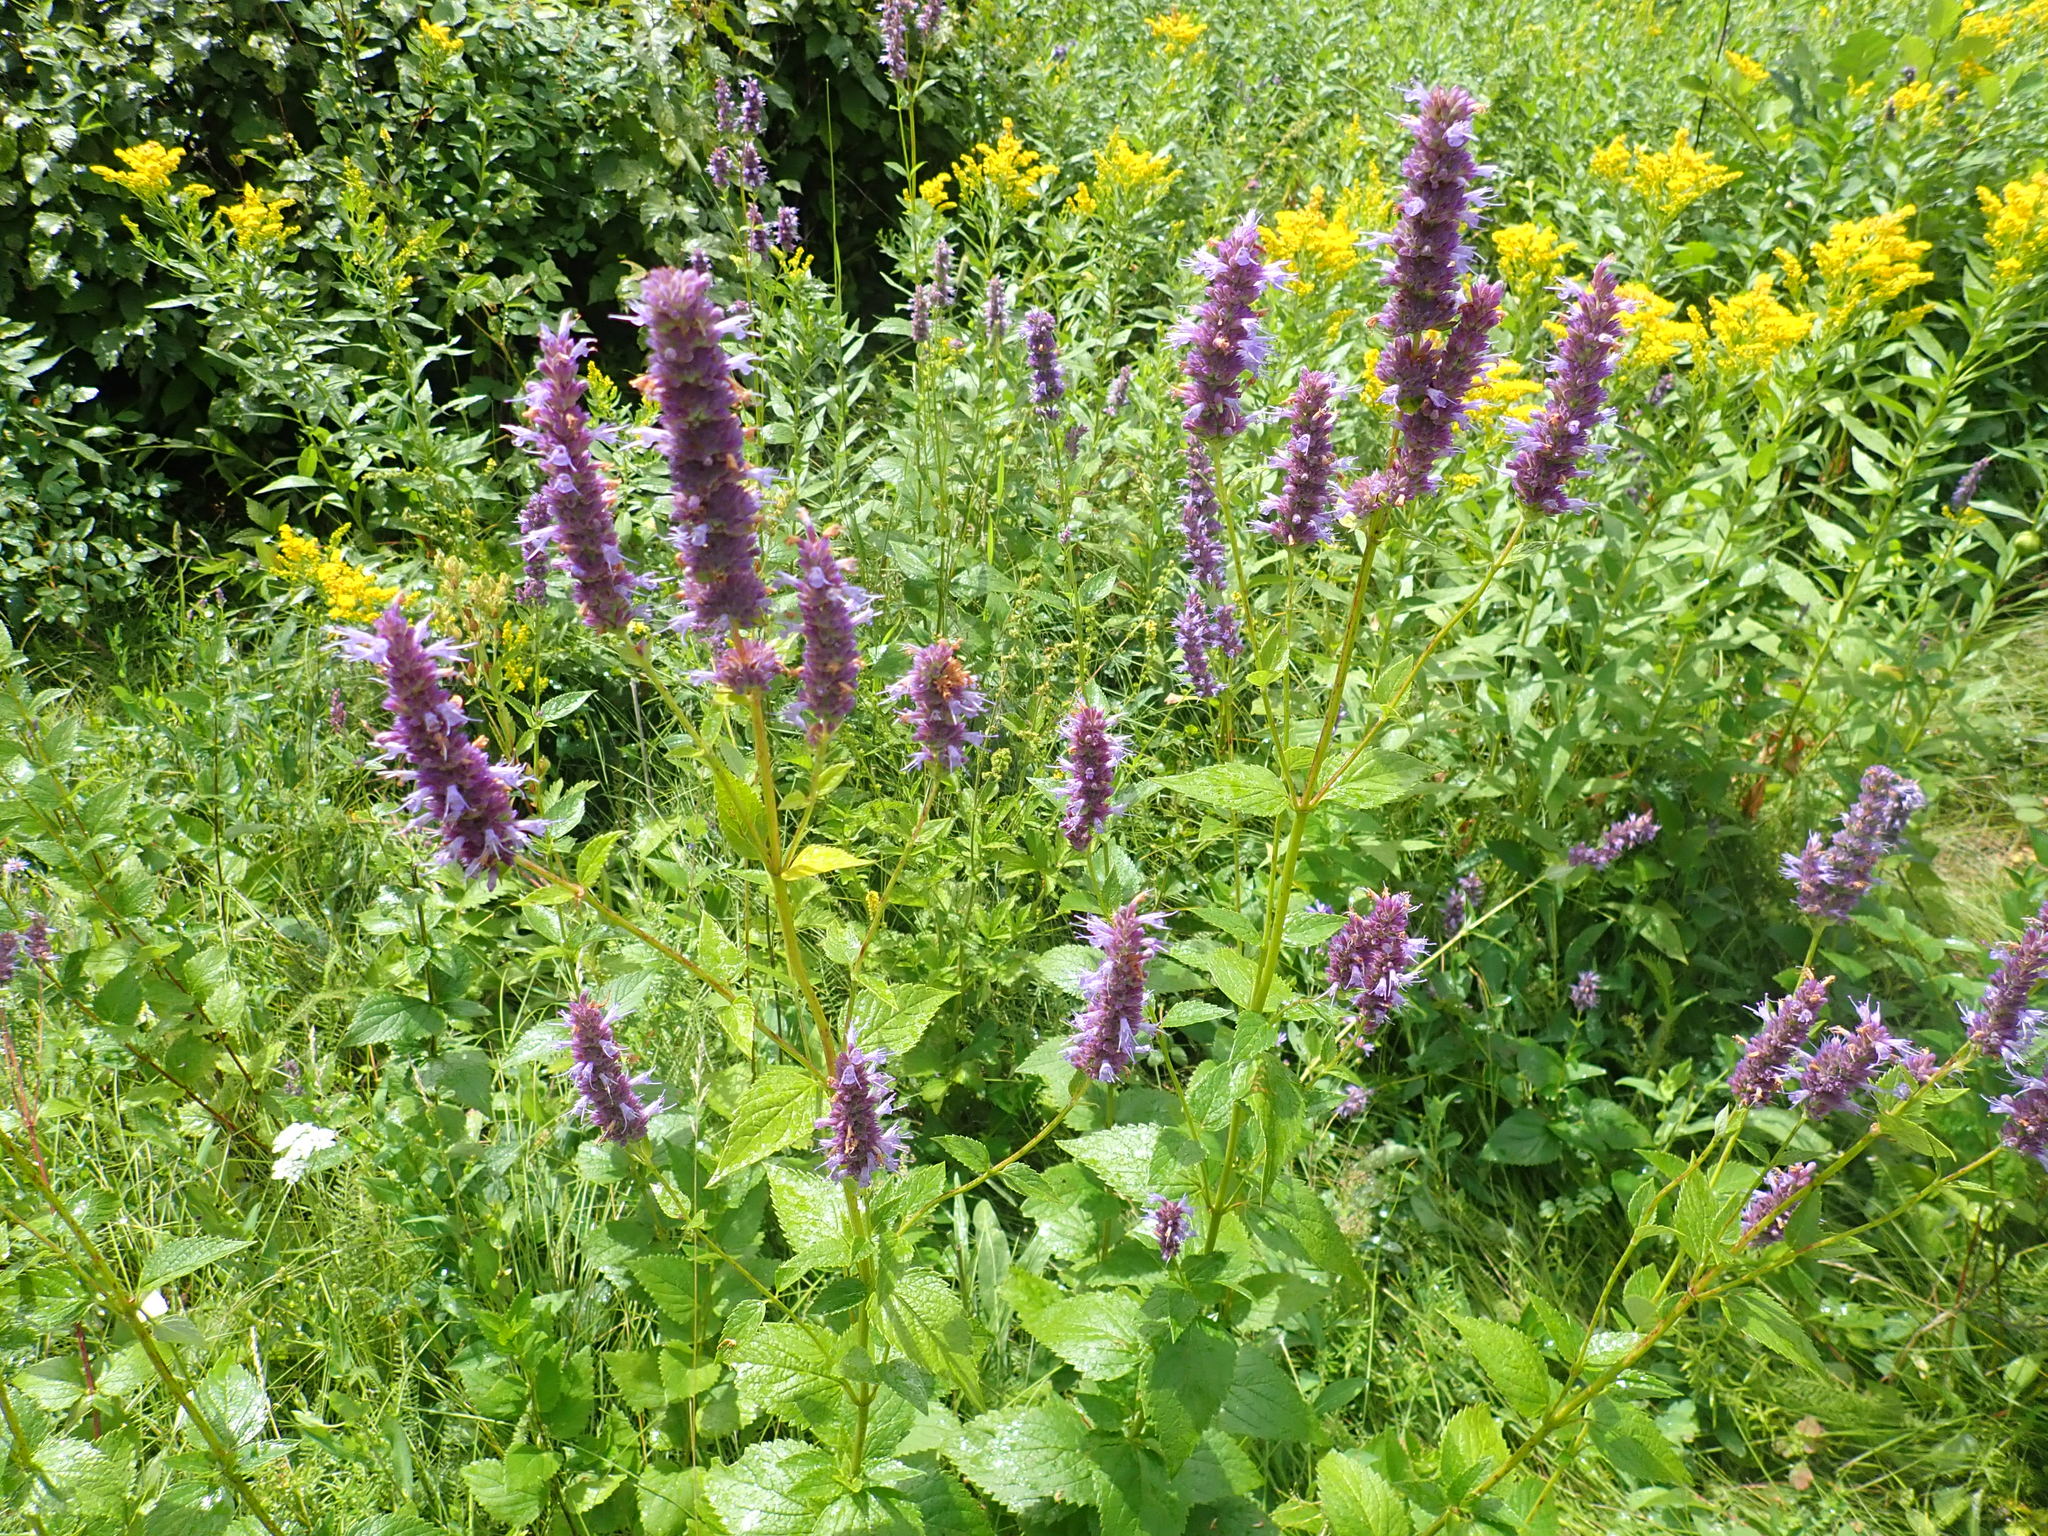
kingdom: Plantae
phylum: Tracheophyta
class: Magnoliopsida
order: Lamiales
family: Lamiaceae
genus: Agastache
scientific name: Agastache foeniculum
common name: Anise hyssop
